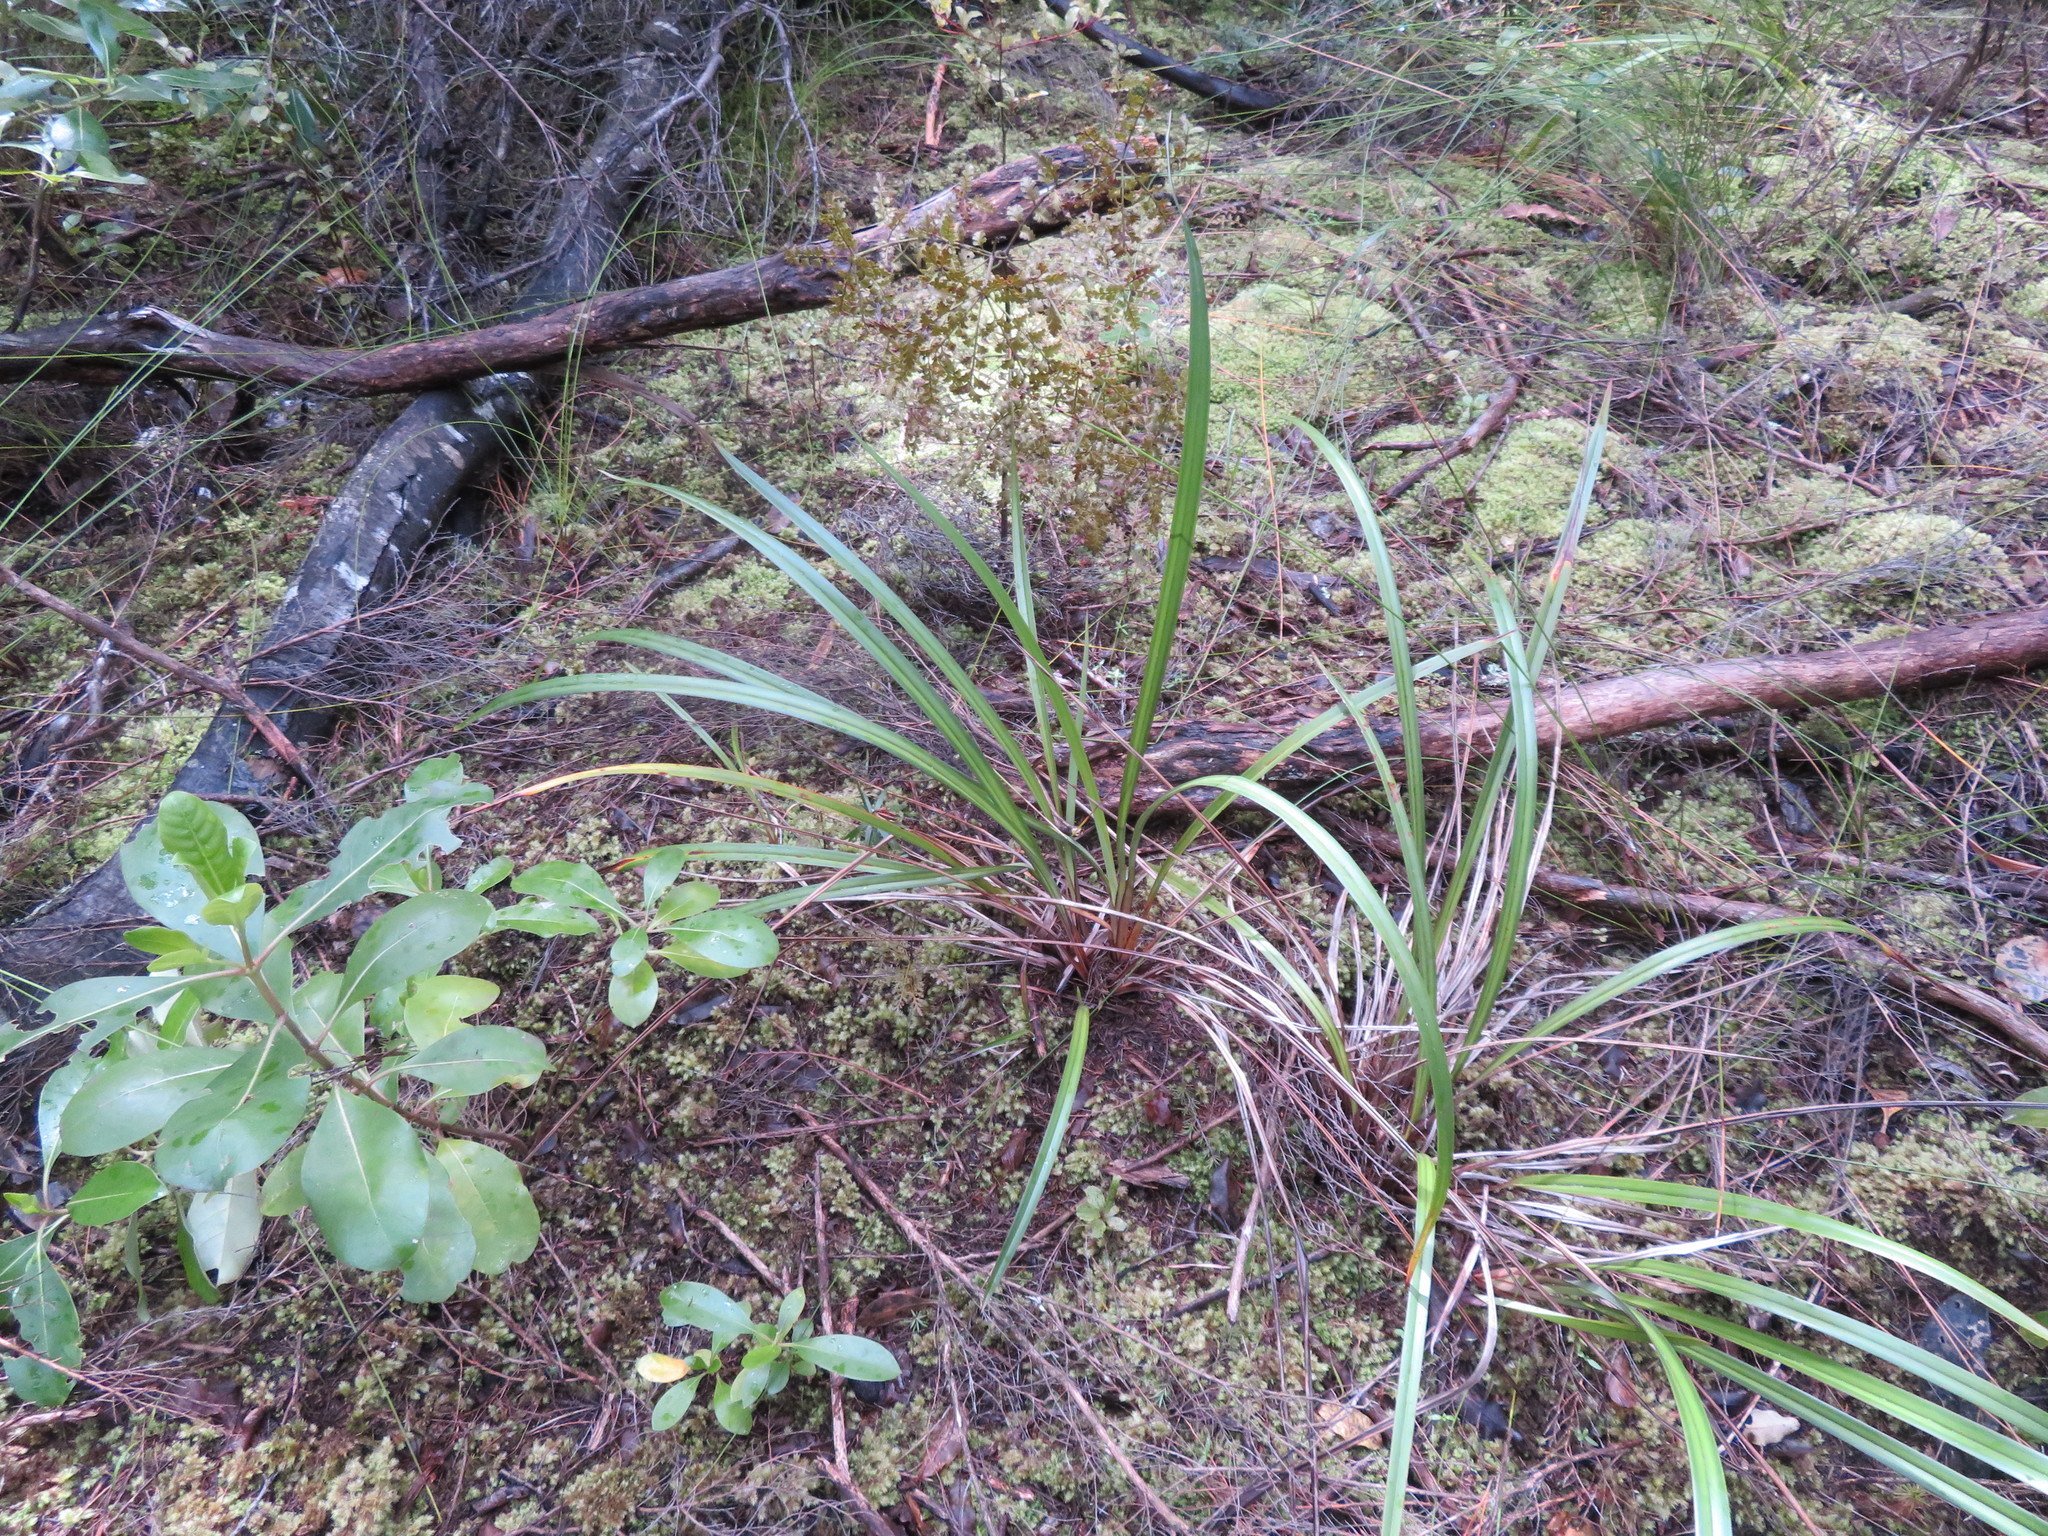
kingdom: Plantae
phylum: Tracheophyta
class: Liliopsida
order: Asparagales
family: Asphodelaceae
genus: Dianella
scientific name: Dianella nigra
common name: New zealand-blueberry
